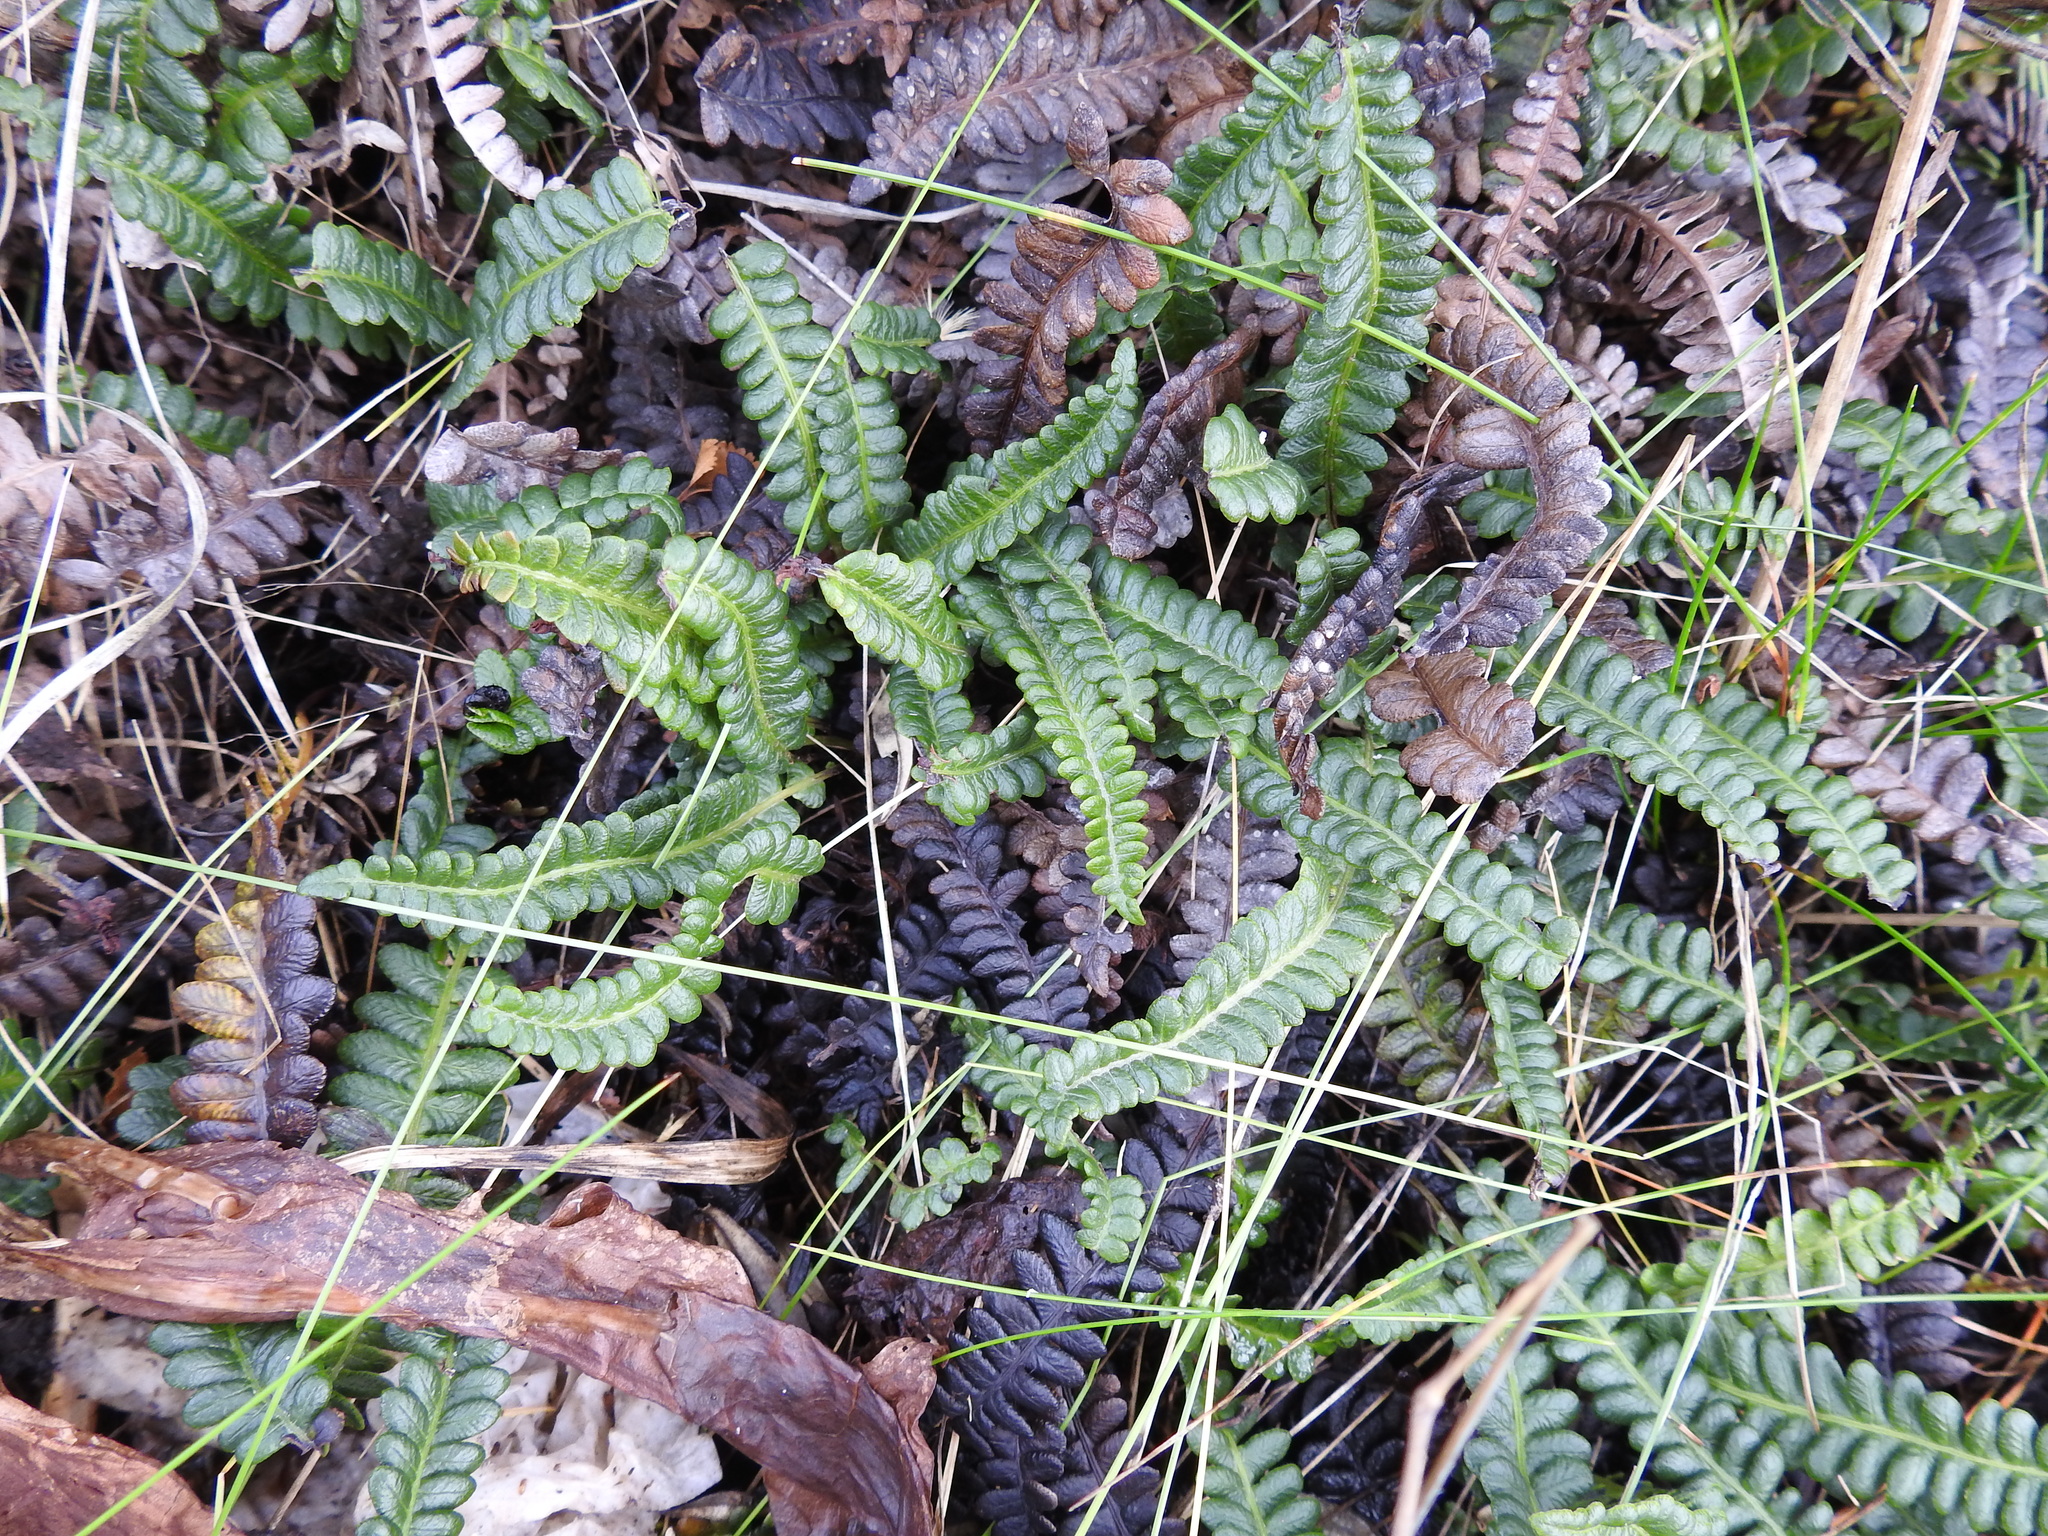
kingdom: Plantae
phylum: Tracheophyta
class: Polypodiopsida
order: Polypodiales
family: Blechnaceae
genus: Austroblechnum
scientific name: Austroblechnum penna-marina
